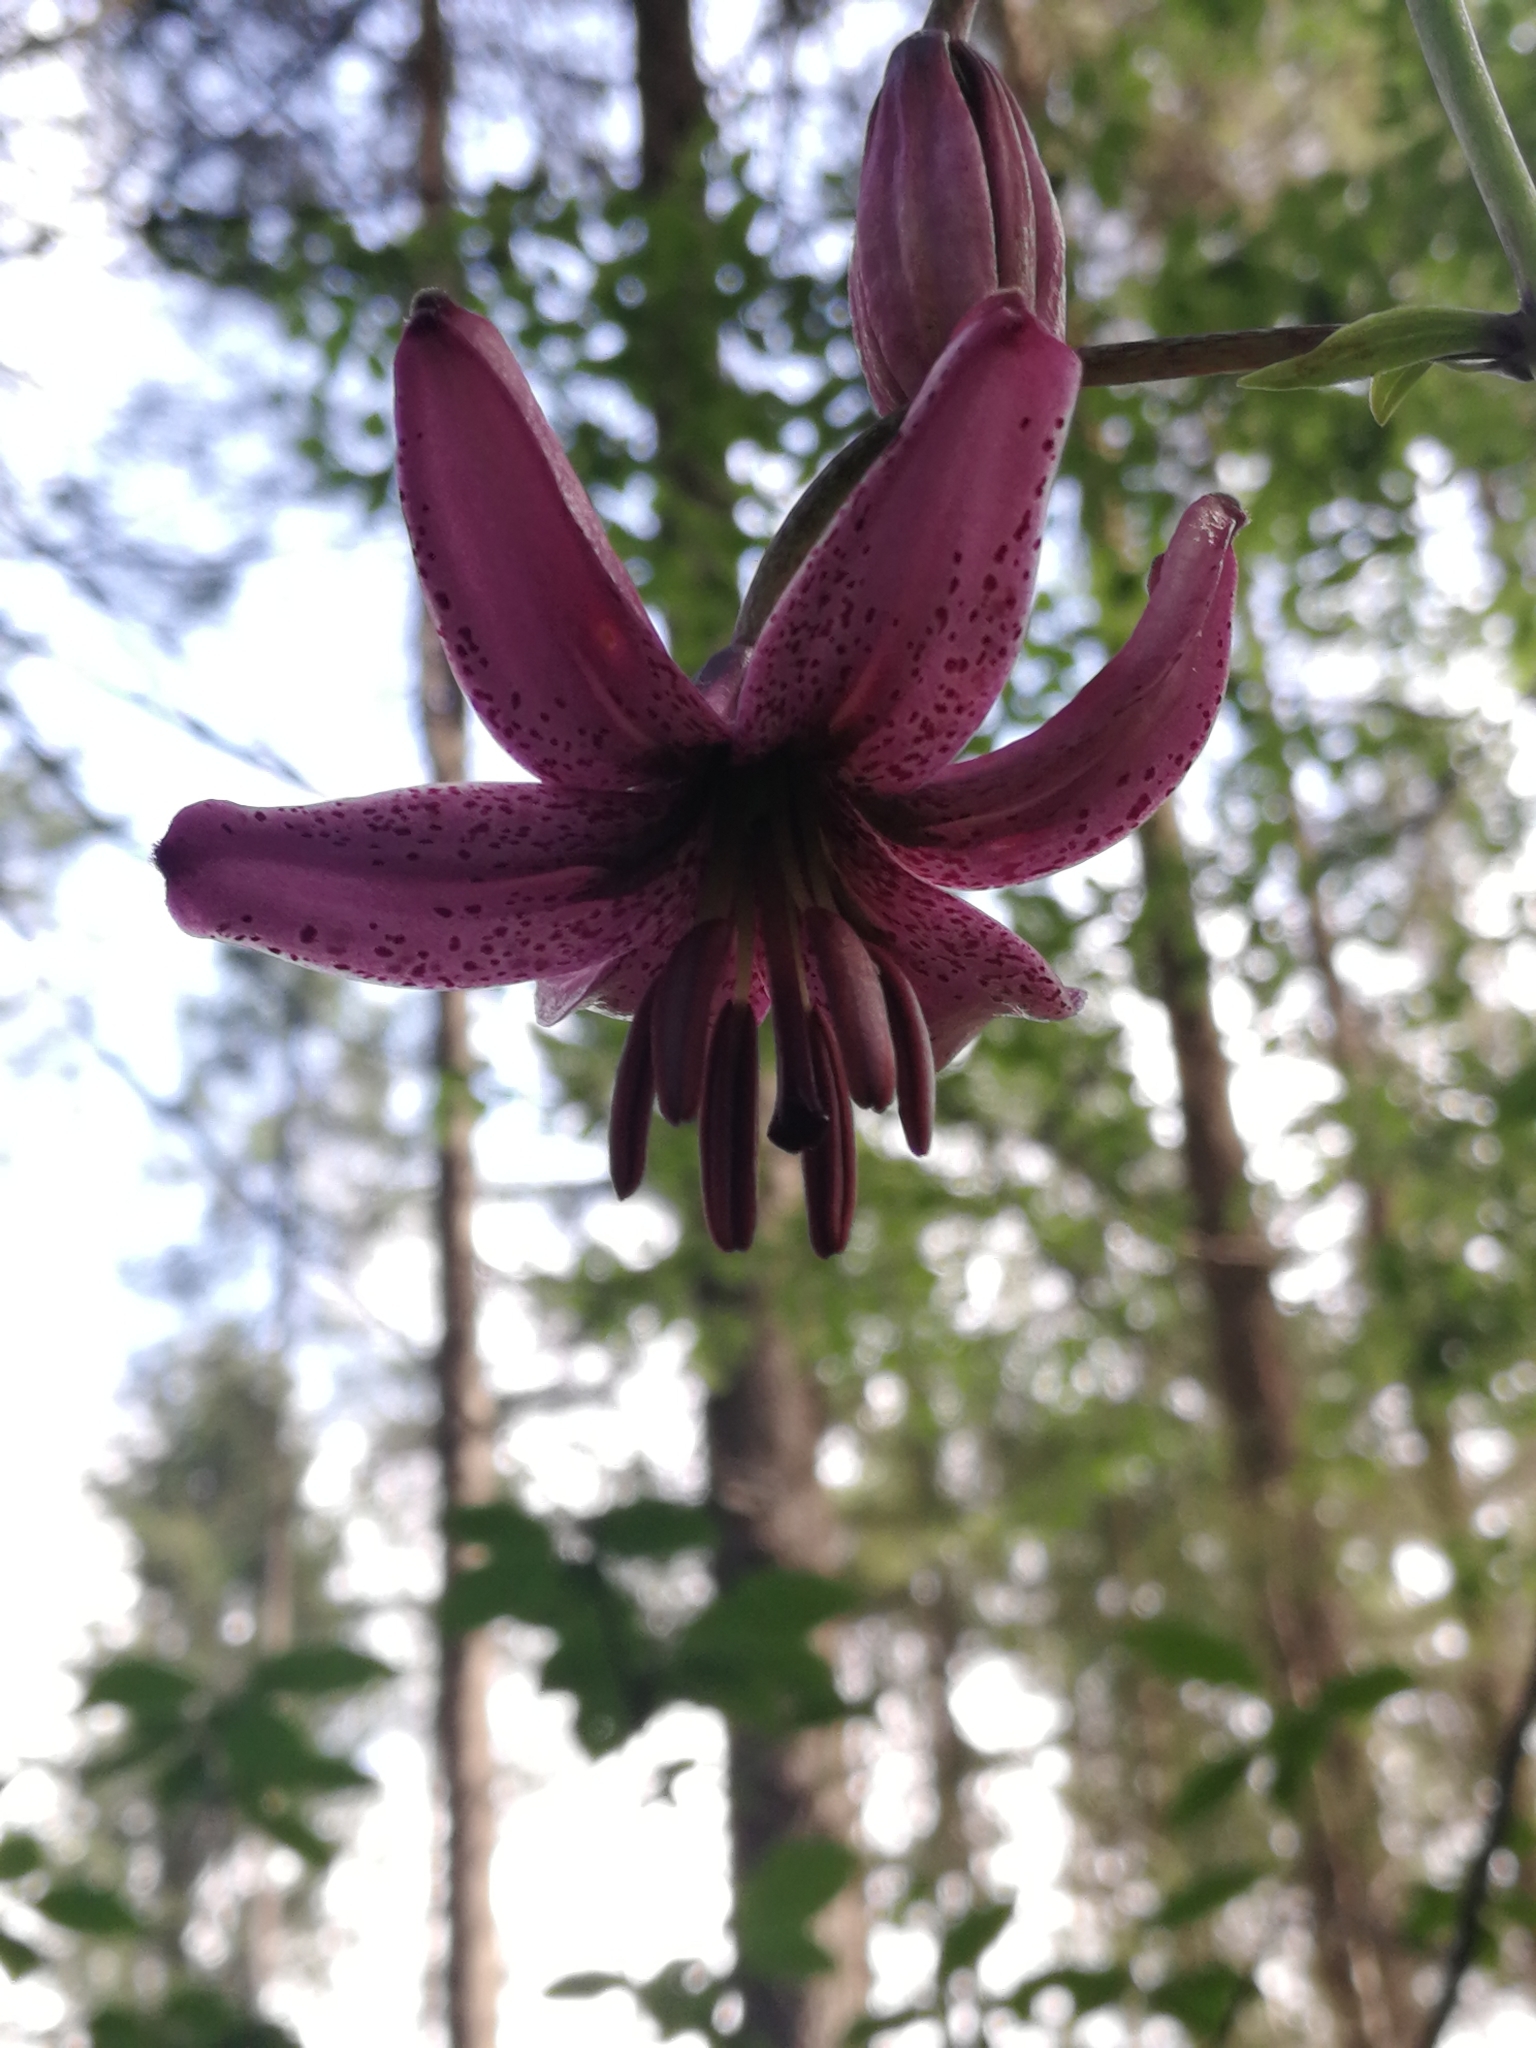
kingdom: Plantae
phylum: Tracheophyta
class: Liliopsida
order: Liliales
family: Liliaceae
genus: Lilium
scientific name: Lilium martagon
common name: Martagon lily
